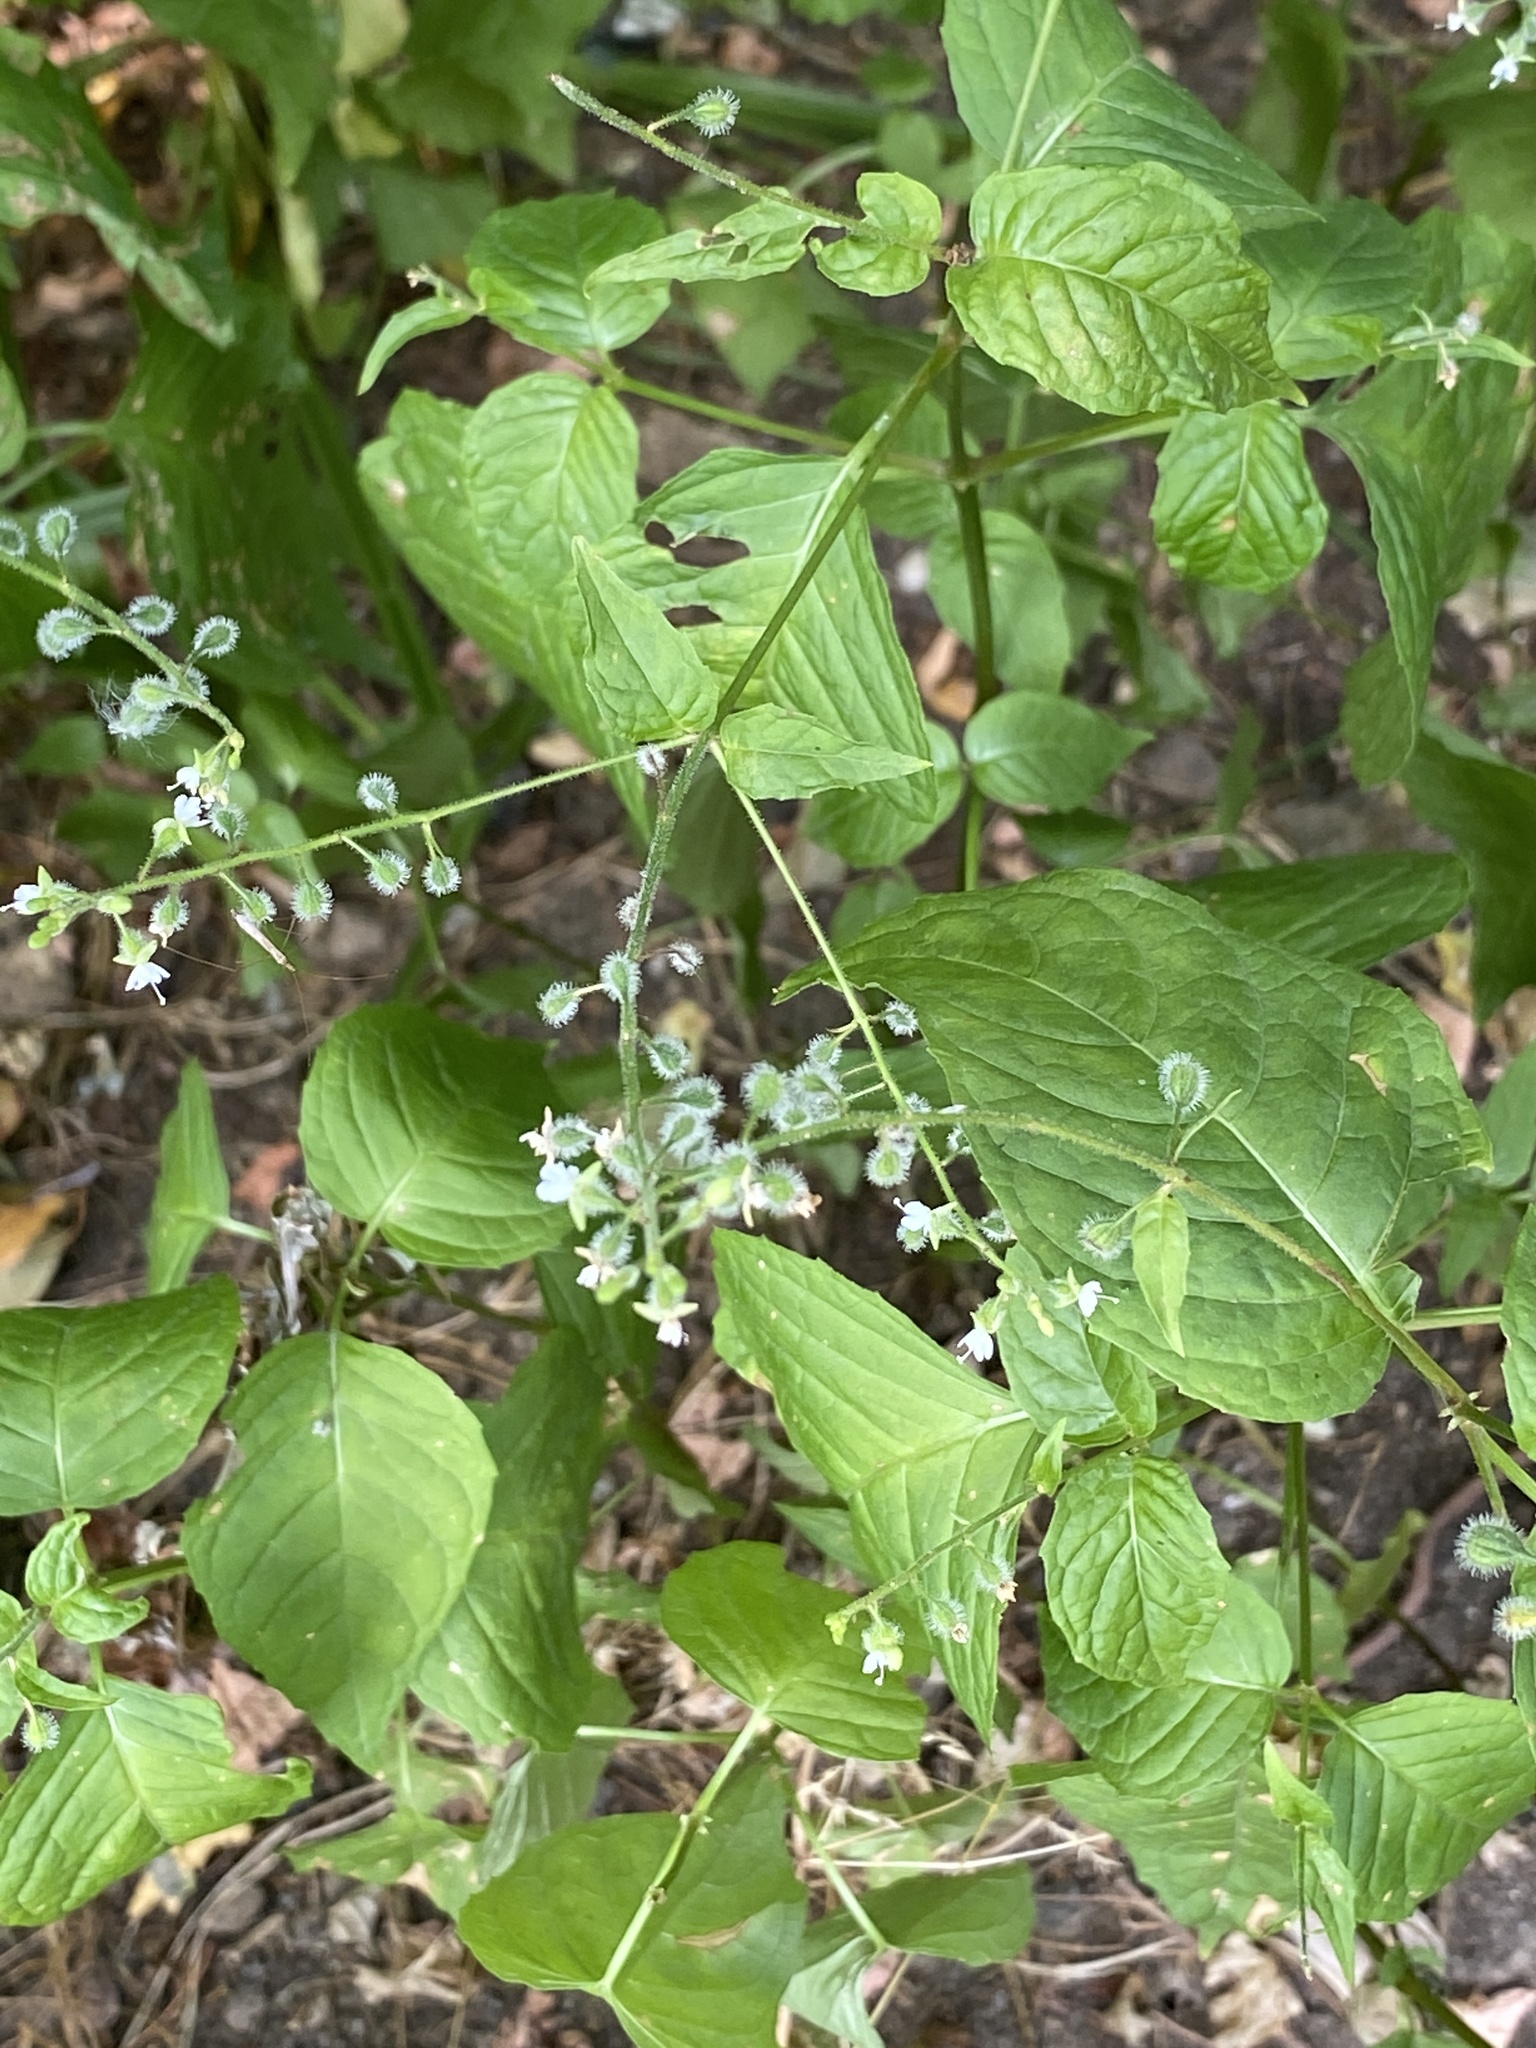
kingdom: Plantae
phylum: Tracheophyta
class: Magnoliopsida
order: Myrtales
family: Onagraceae
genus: Circaea
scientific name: Circaea canadensis
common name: Broad-leaved enchanter's nightshade
